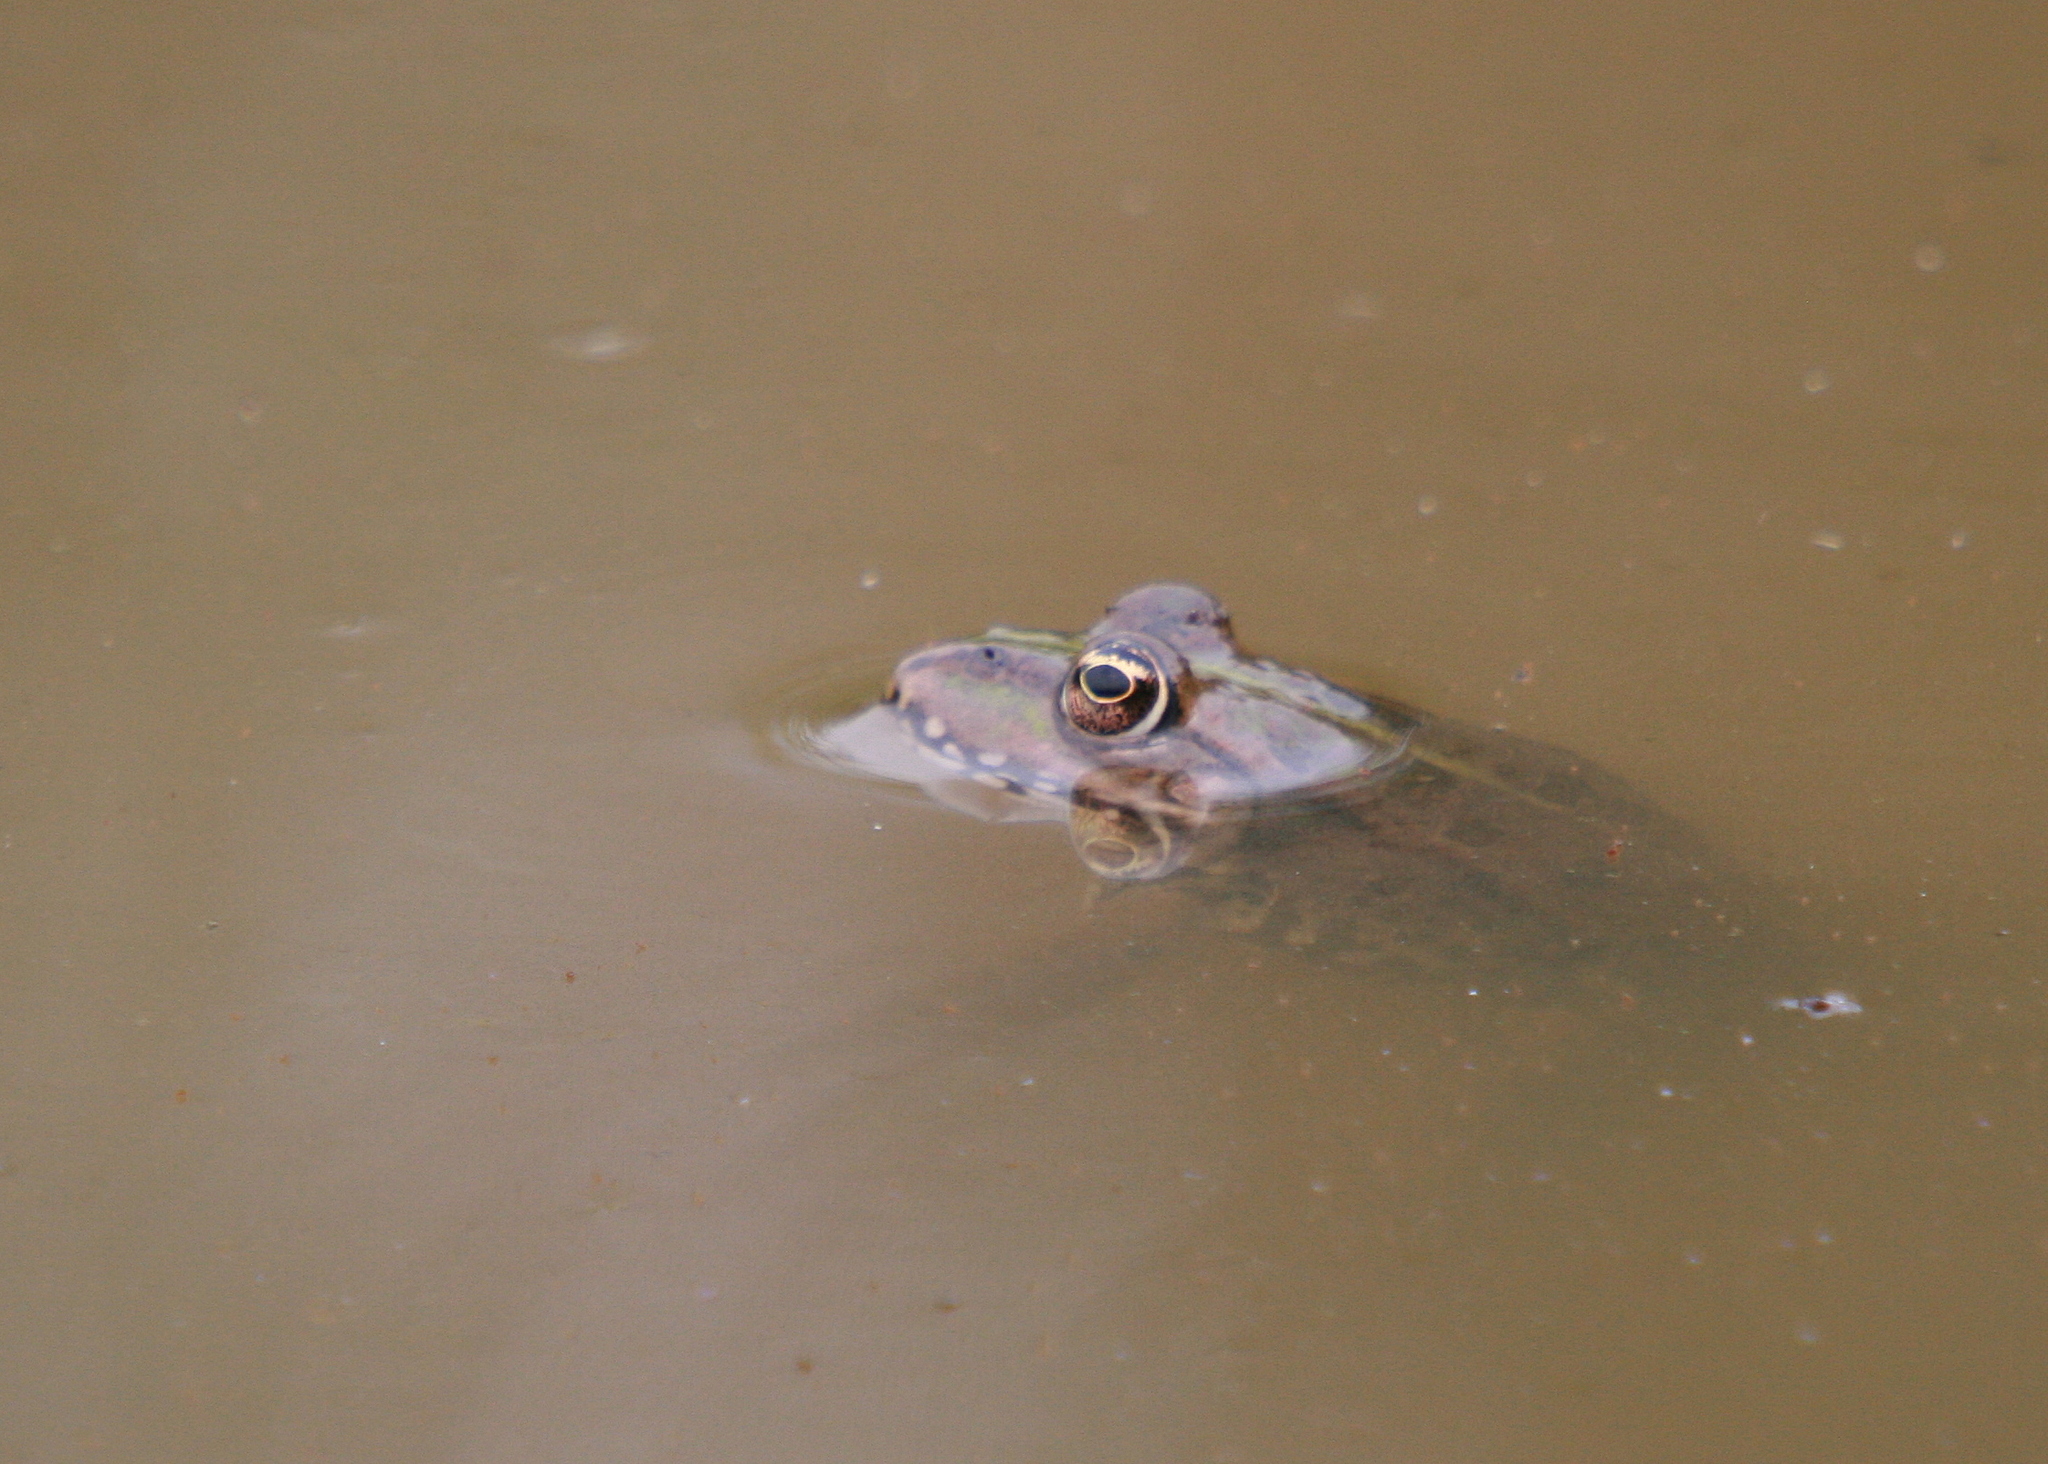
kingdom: Animalia
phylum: Chordata
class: Amphibia
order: Anura
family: Ranidae
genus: Pelophylax
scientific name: Pelophylax
